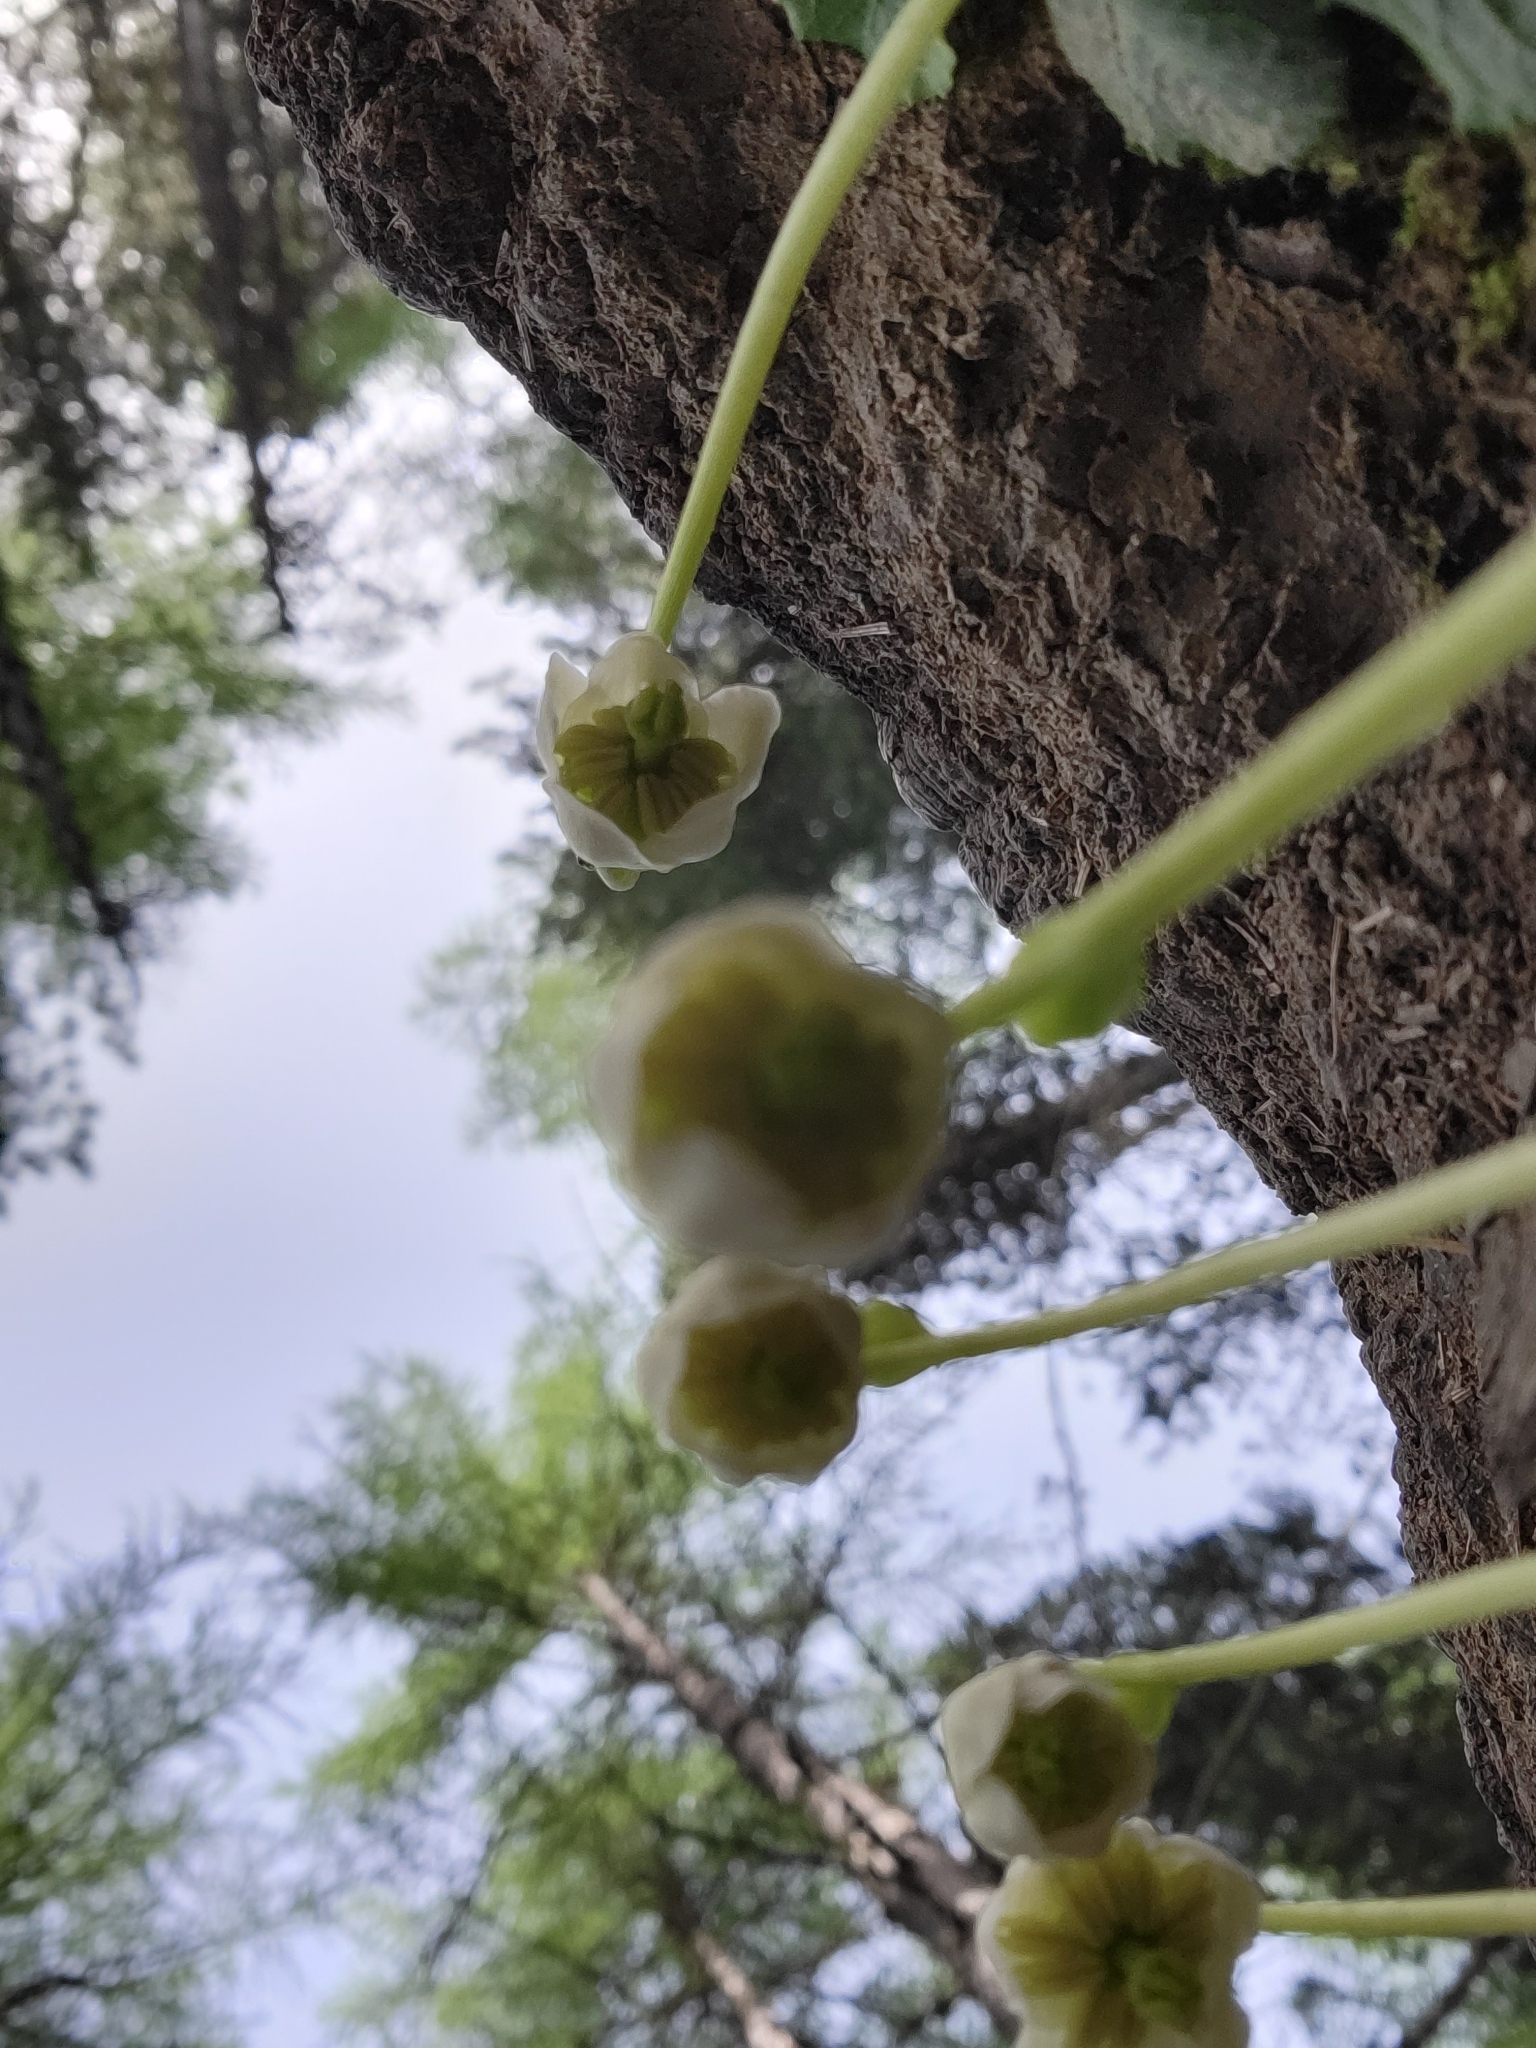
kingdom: Plantae
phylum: Tracheophyta
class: Magnoliopsida
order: Ericales
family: Ericaceae
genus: Moneses
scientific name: Moneses uniflora
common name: One-flowered wintergreen
